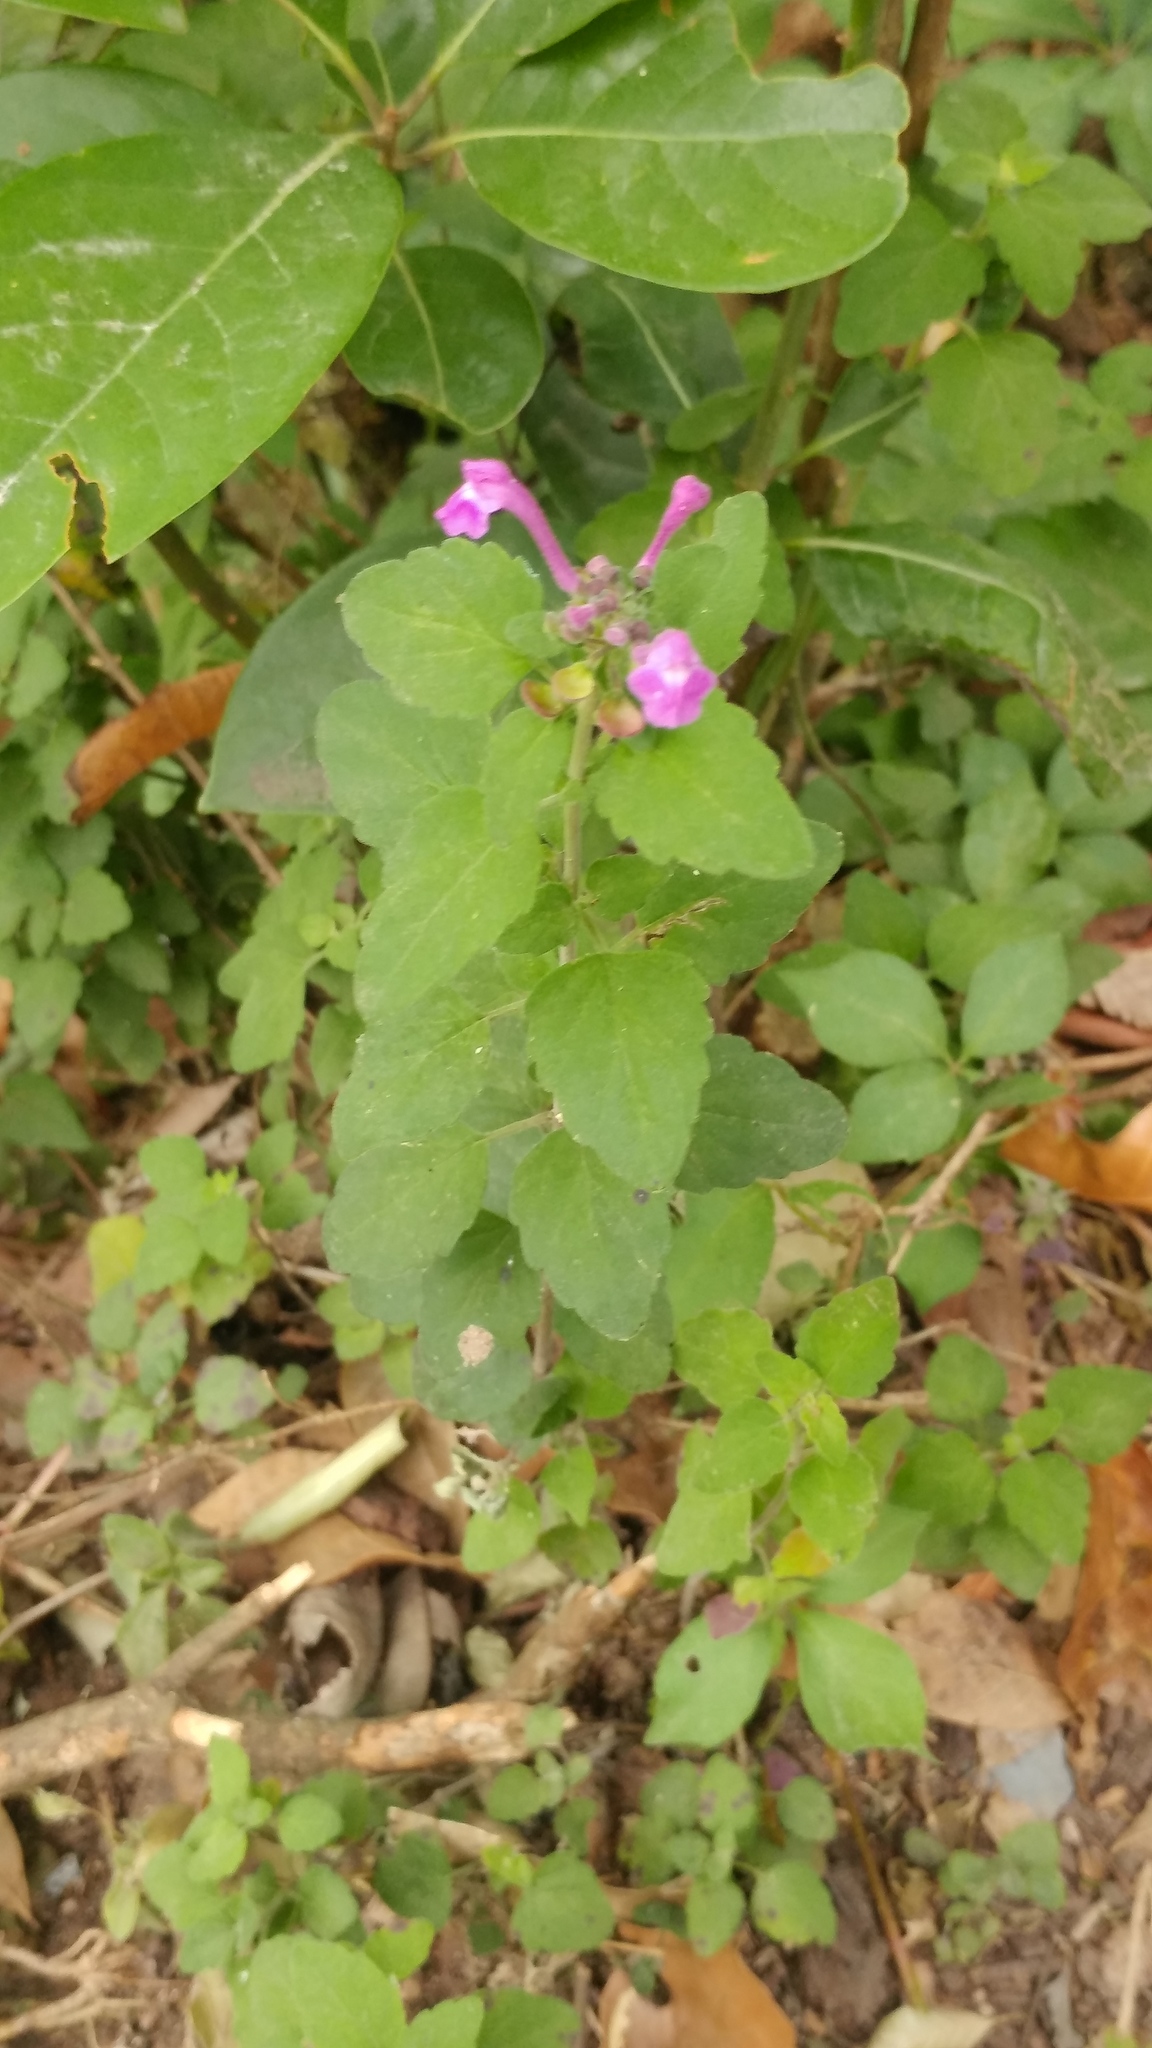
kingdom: Plantae
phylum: Tracheophyta
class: Magnoliopsida
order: Lamiales
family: Lamiaceae
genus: Scutellaria
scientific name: Scutellaria seleriana
